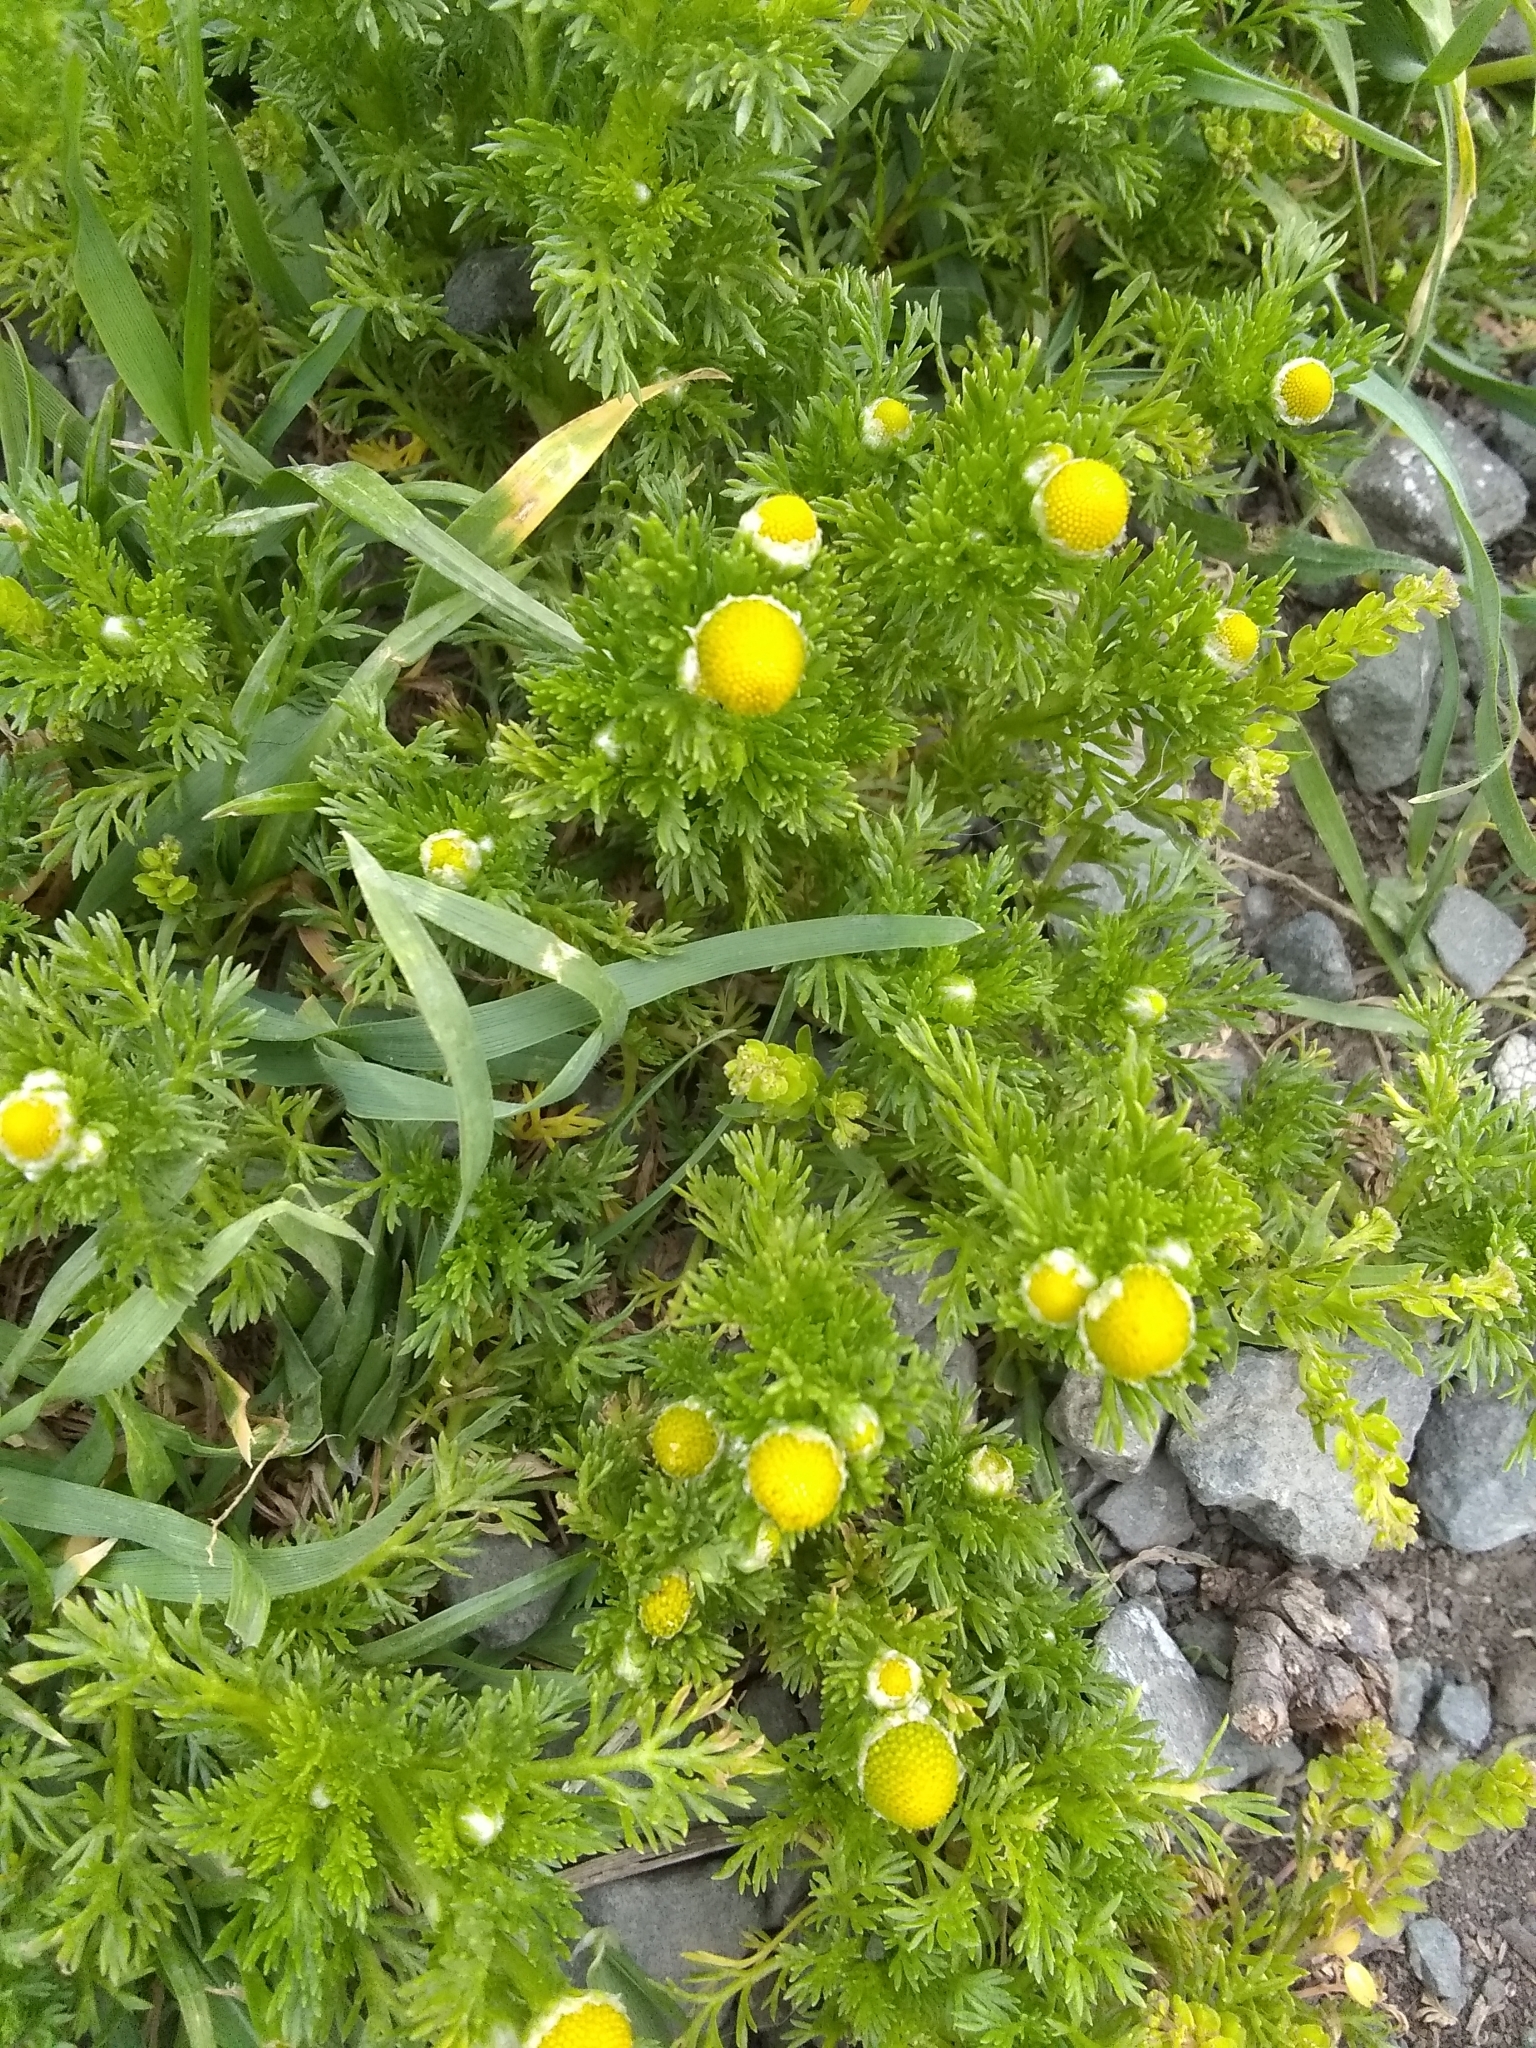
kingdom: Plantae
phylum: Tracheophyta
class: Magnoliopsida
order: Asterales
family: Asteraceae
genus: Matricaria
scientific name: Matricaria discoidea
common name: Disc mayweed
